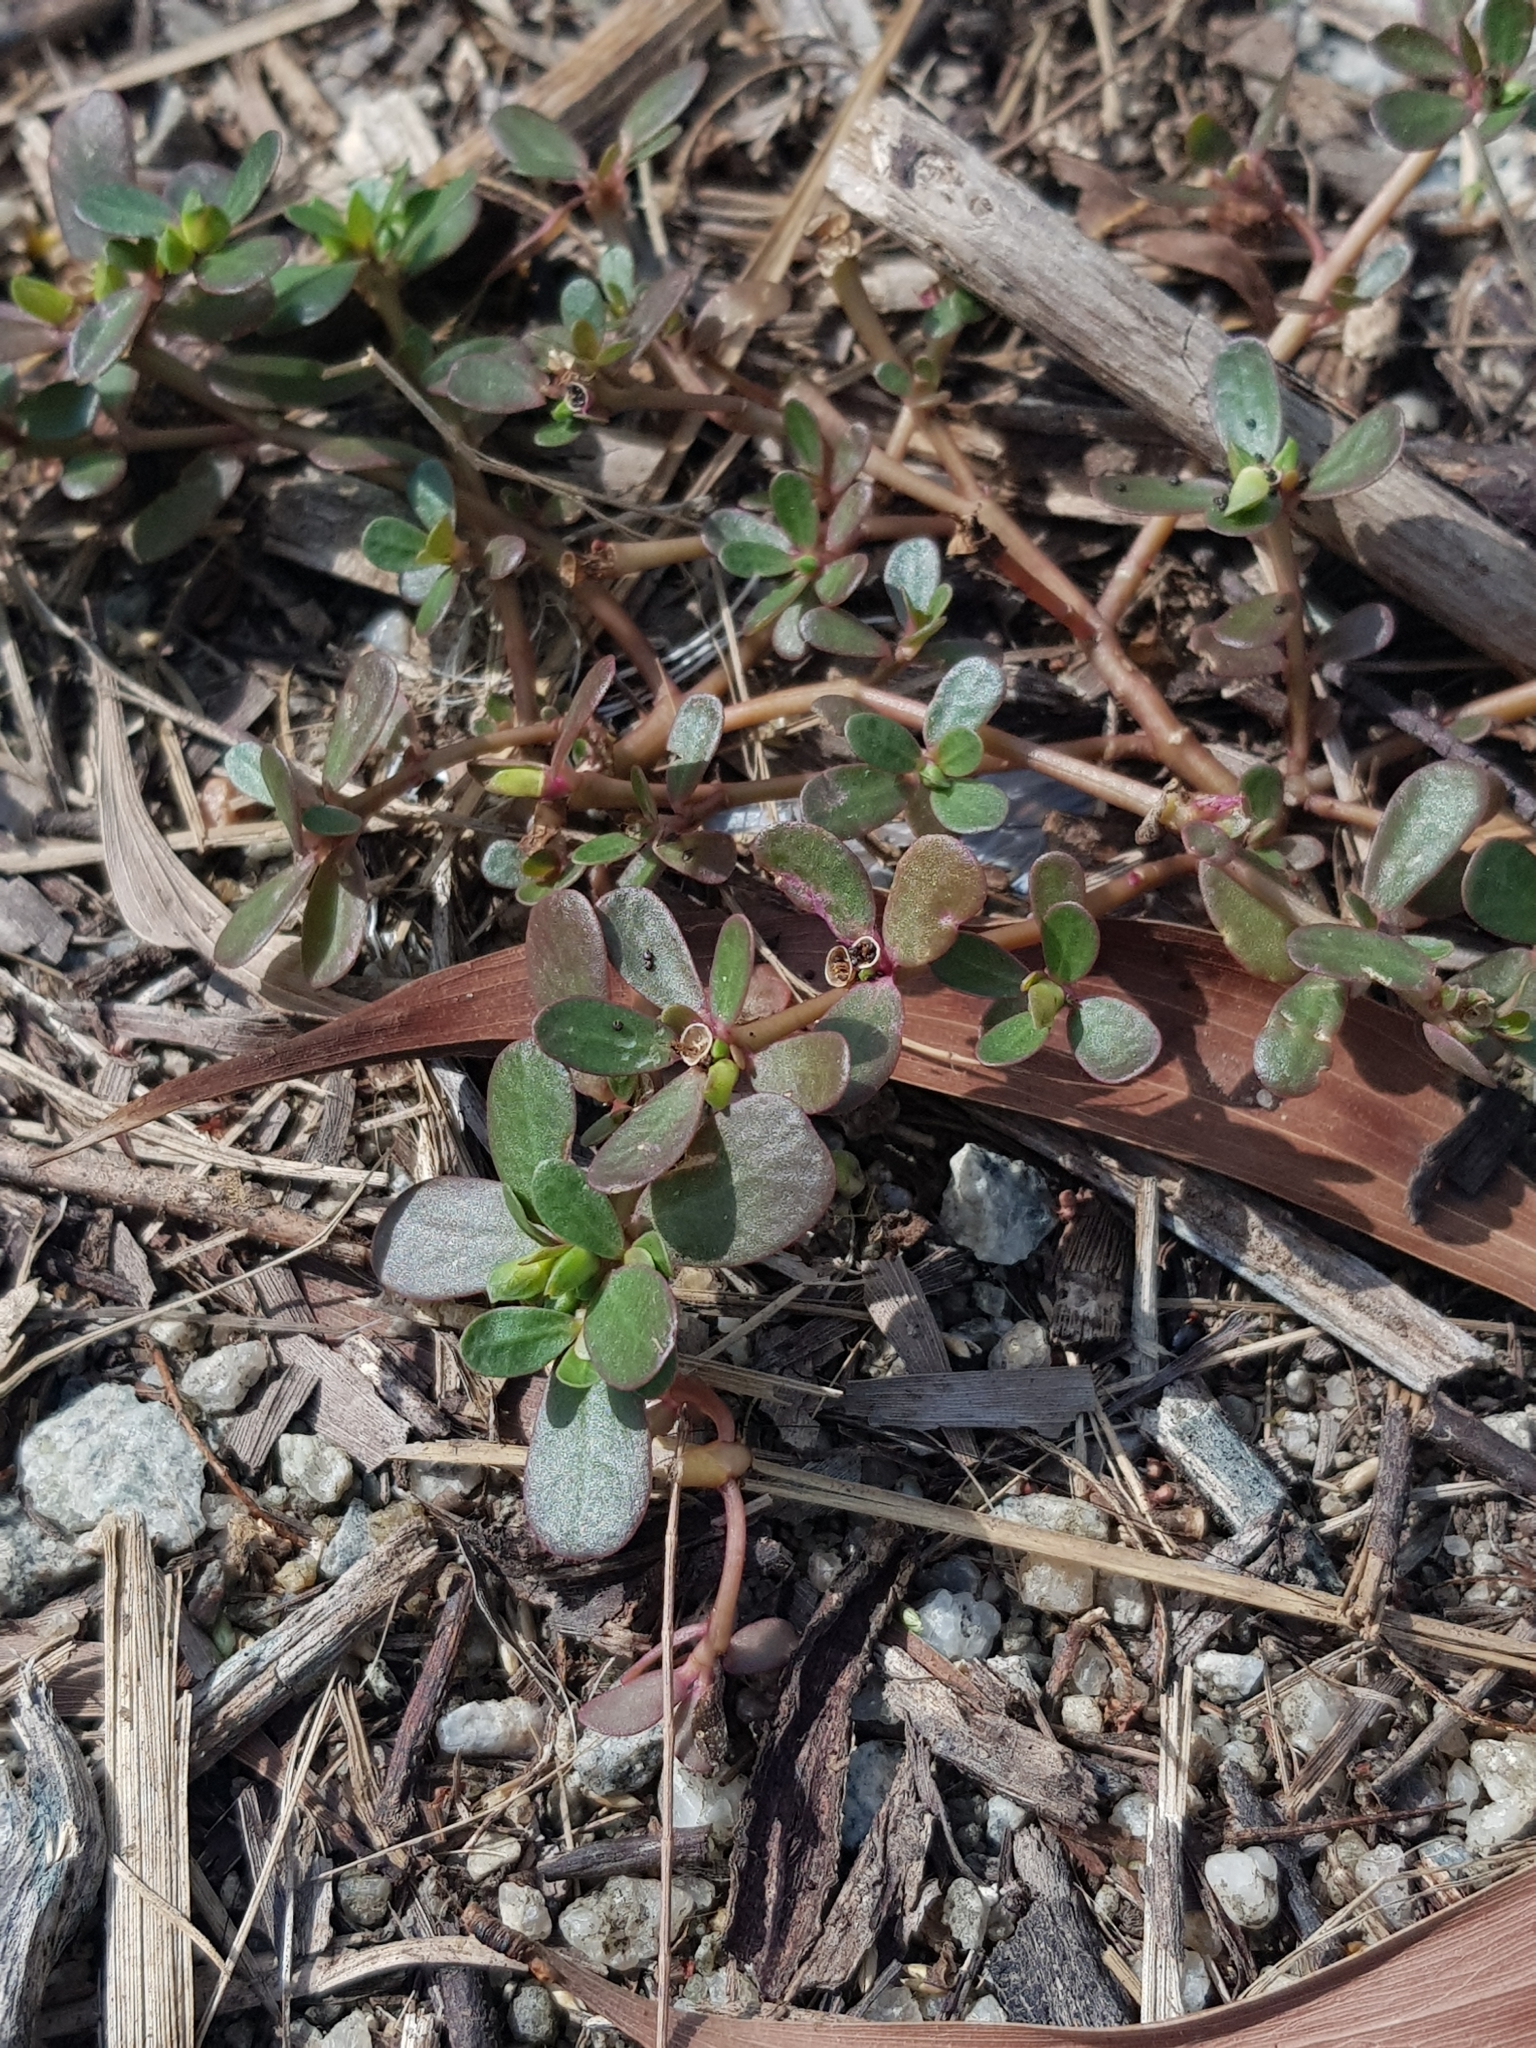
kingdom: Plantae
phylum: Tracheophyta
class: Magnoliopsida
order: Caryophyllales
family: Portulacaceae
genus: Portulaca
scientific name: Portulaca oleracea
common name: Common purslane
